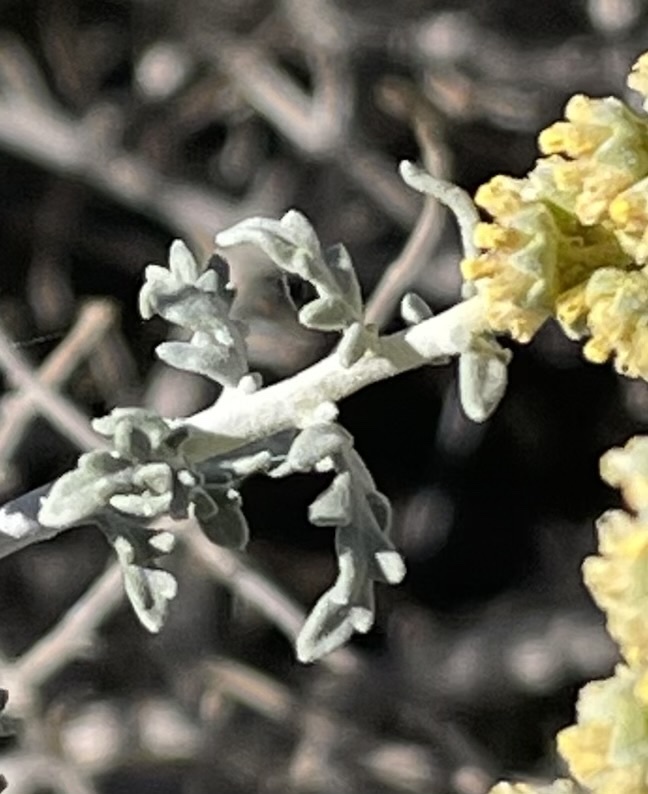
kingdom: Plantae
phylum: Tracheophyta
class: Magnoliopsida
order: Asterales
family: Asteraceae
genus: Ambrosia
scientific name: Ambrosia dumosa
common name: Bur-sage
